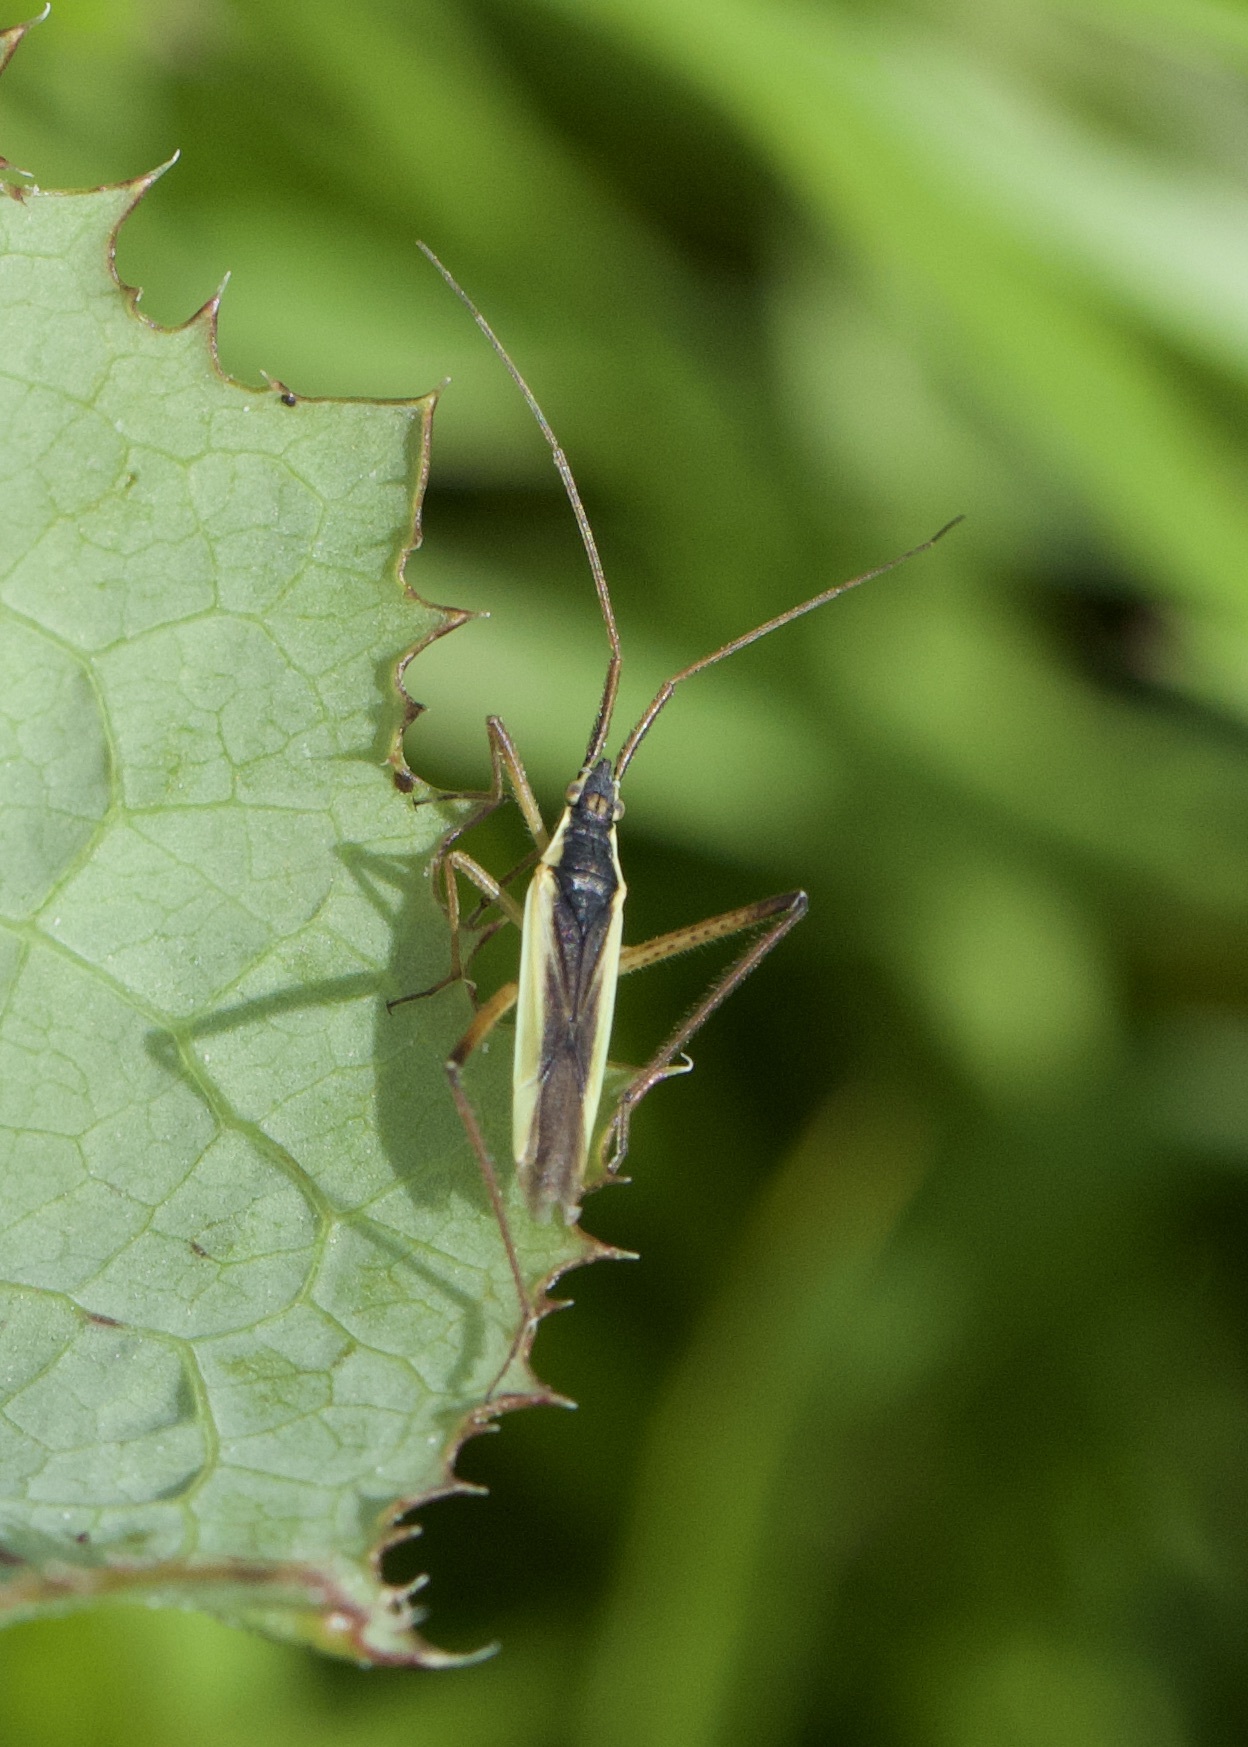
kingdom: Animalia
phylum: Arthropoda
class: Insecta
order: Hemiptera
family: Miridae
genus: Notostira
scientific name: Notostira elongata
